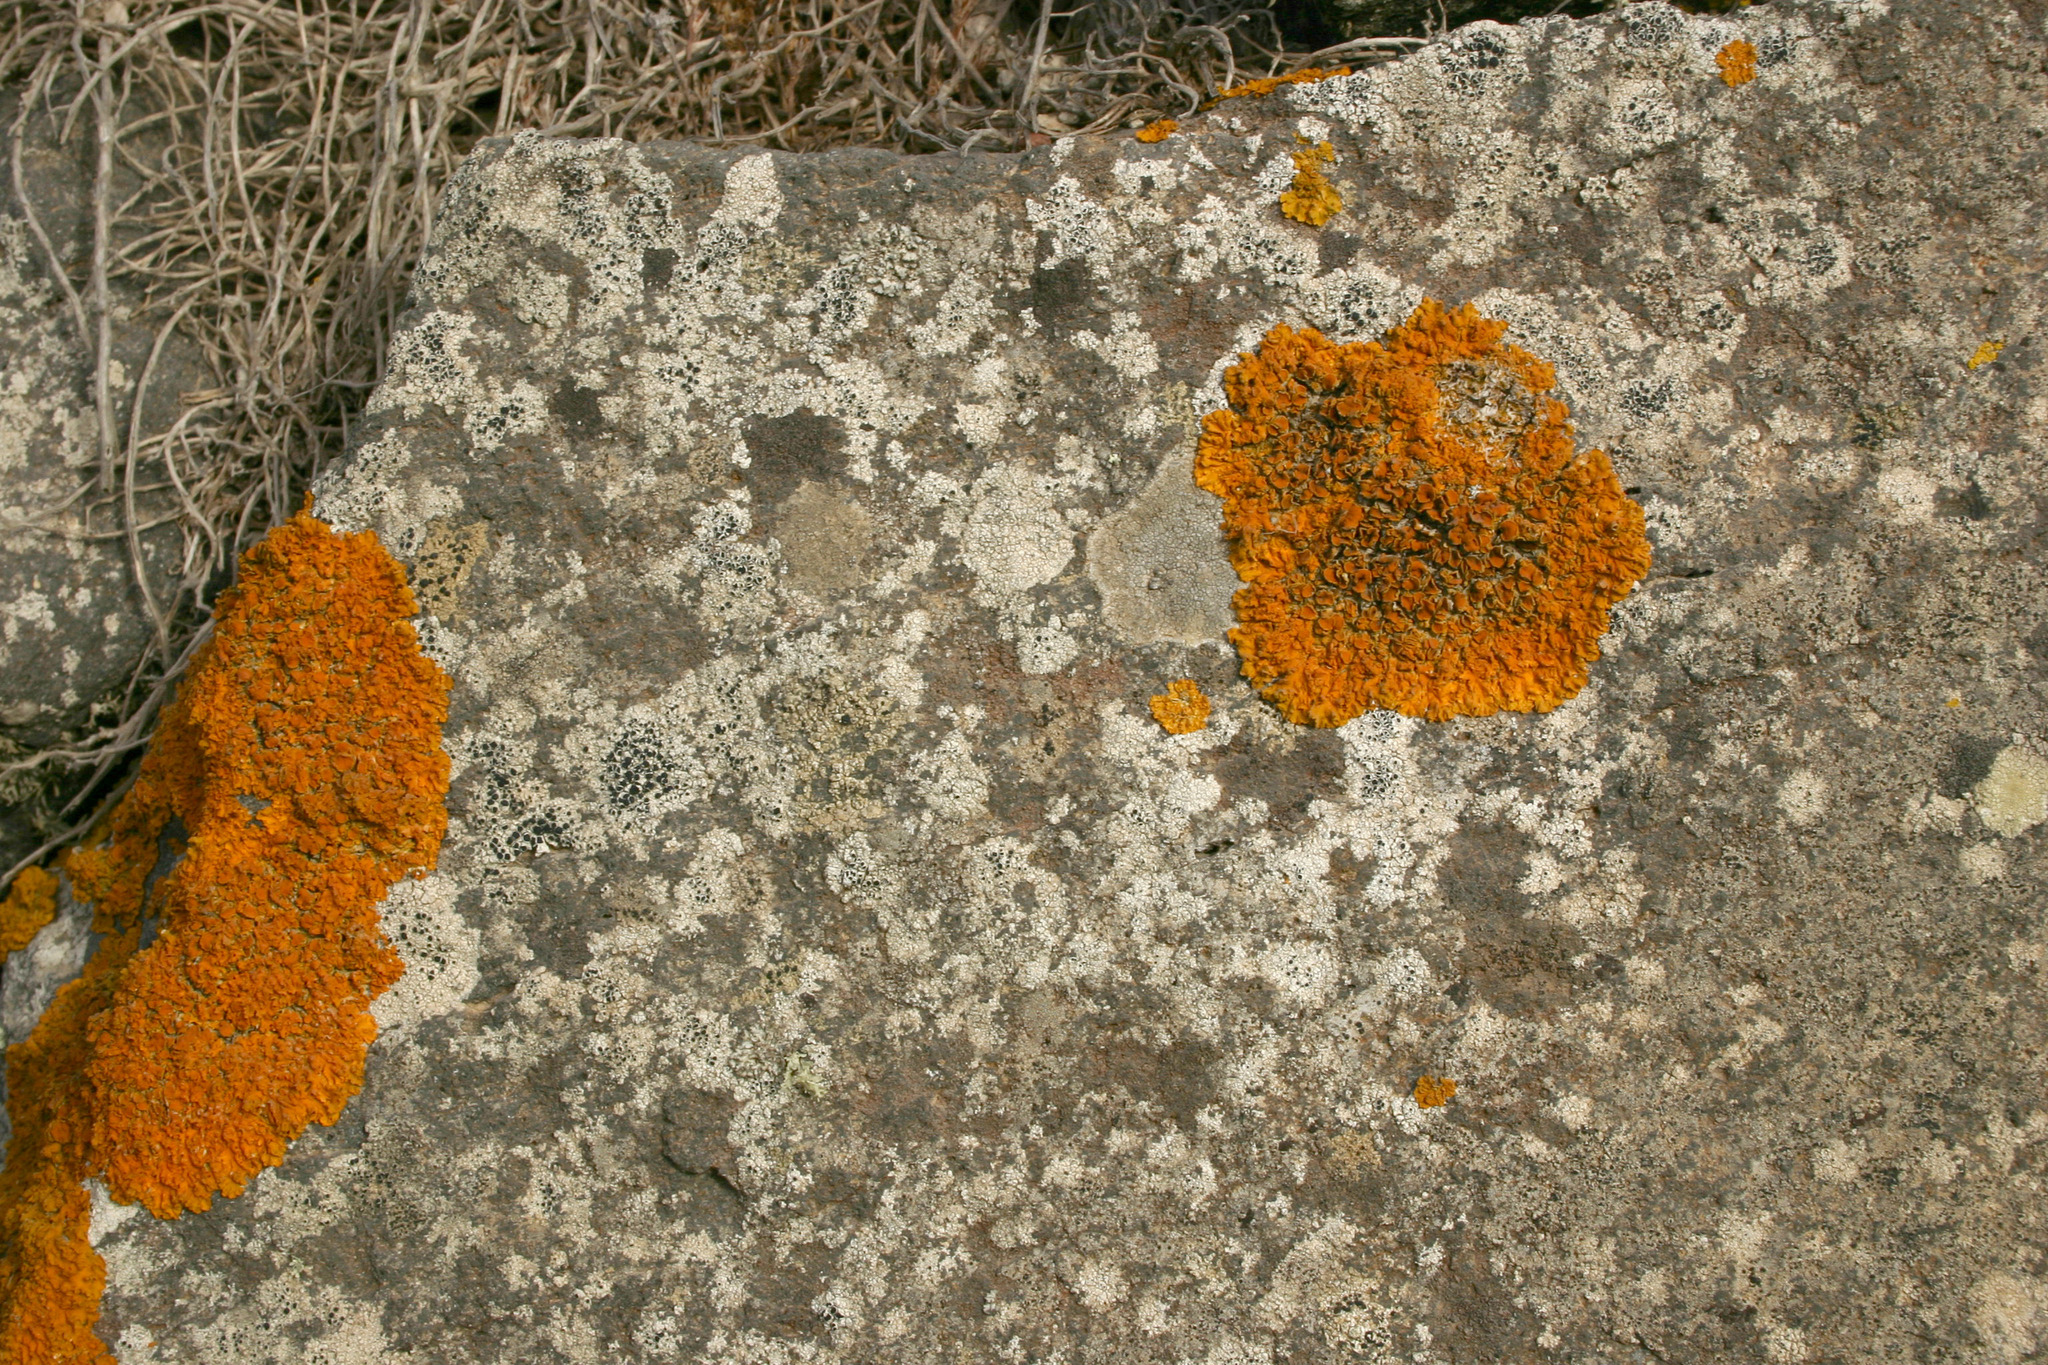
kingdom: Fungi
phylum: Ascomycota
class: Lecanoromycetes
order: Teloschistales
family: Teloschistaceae
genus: Xanthoria
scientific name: Xanthoria parietina
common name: Common orange lichen
